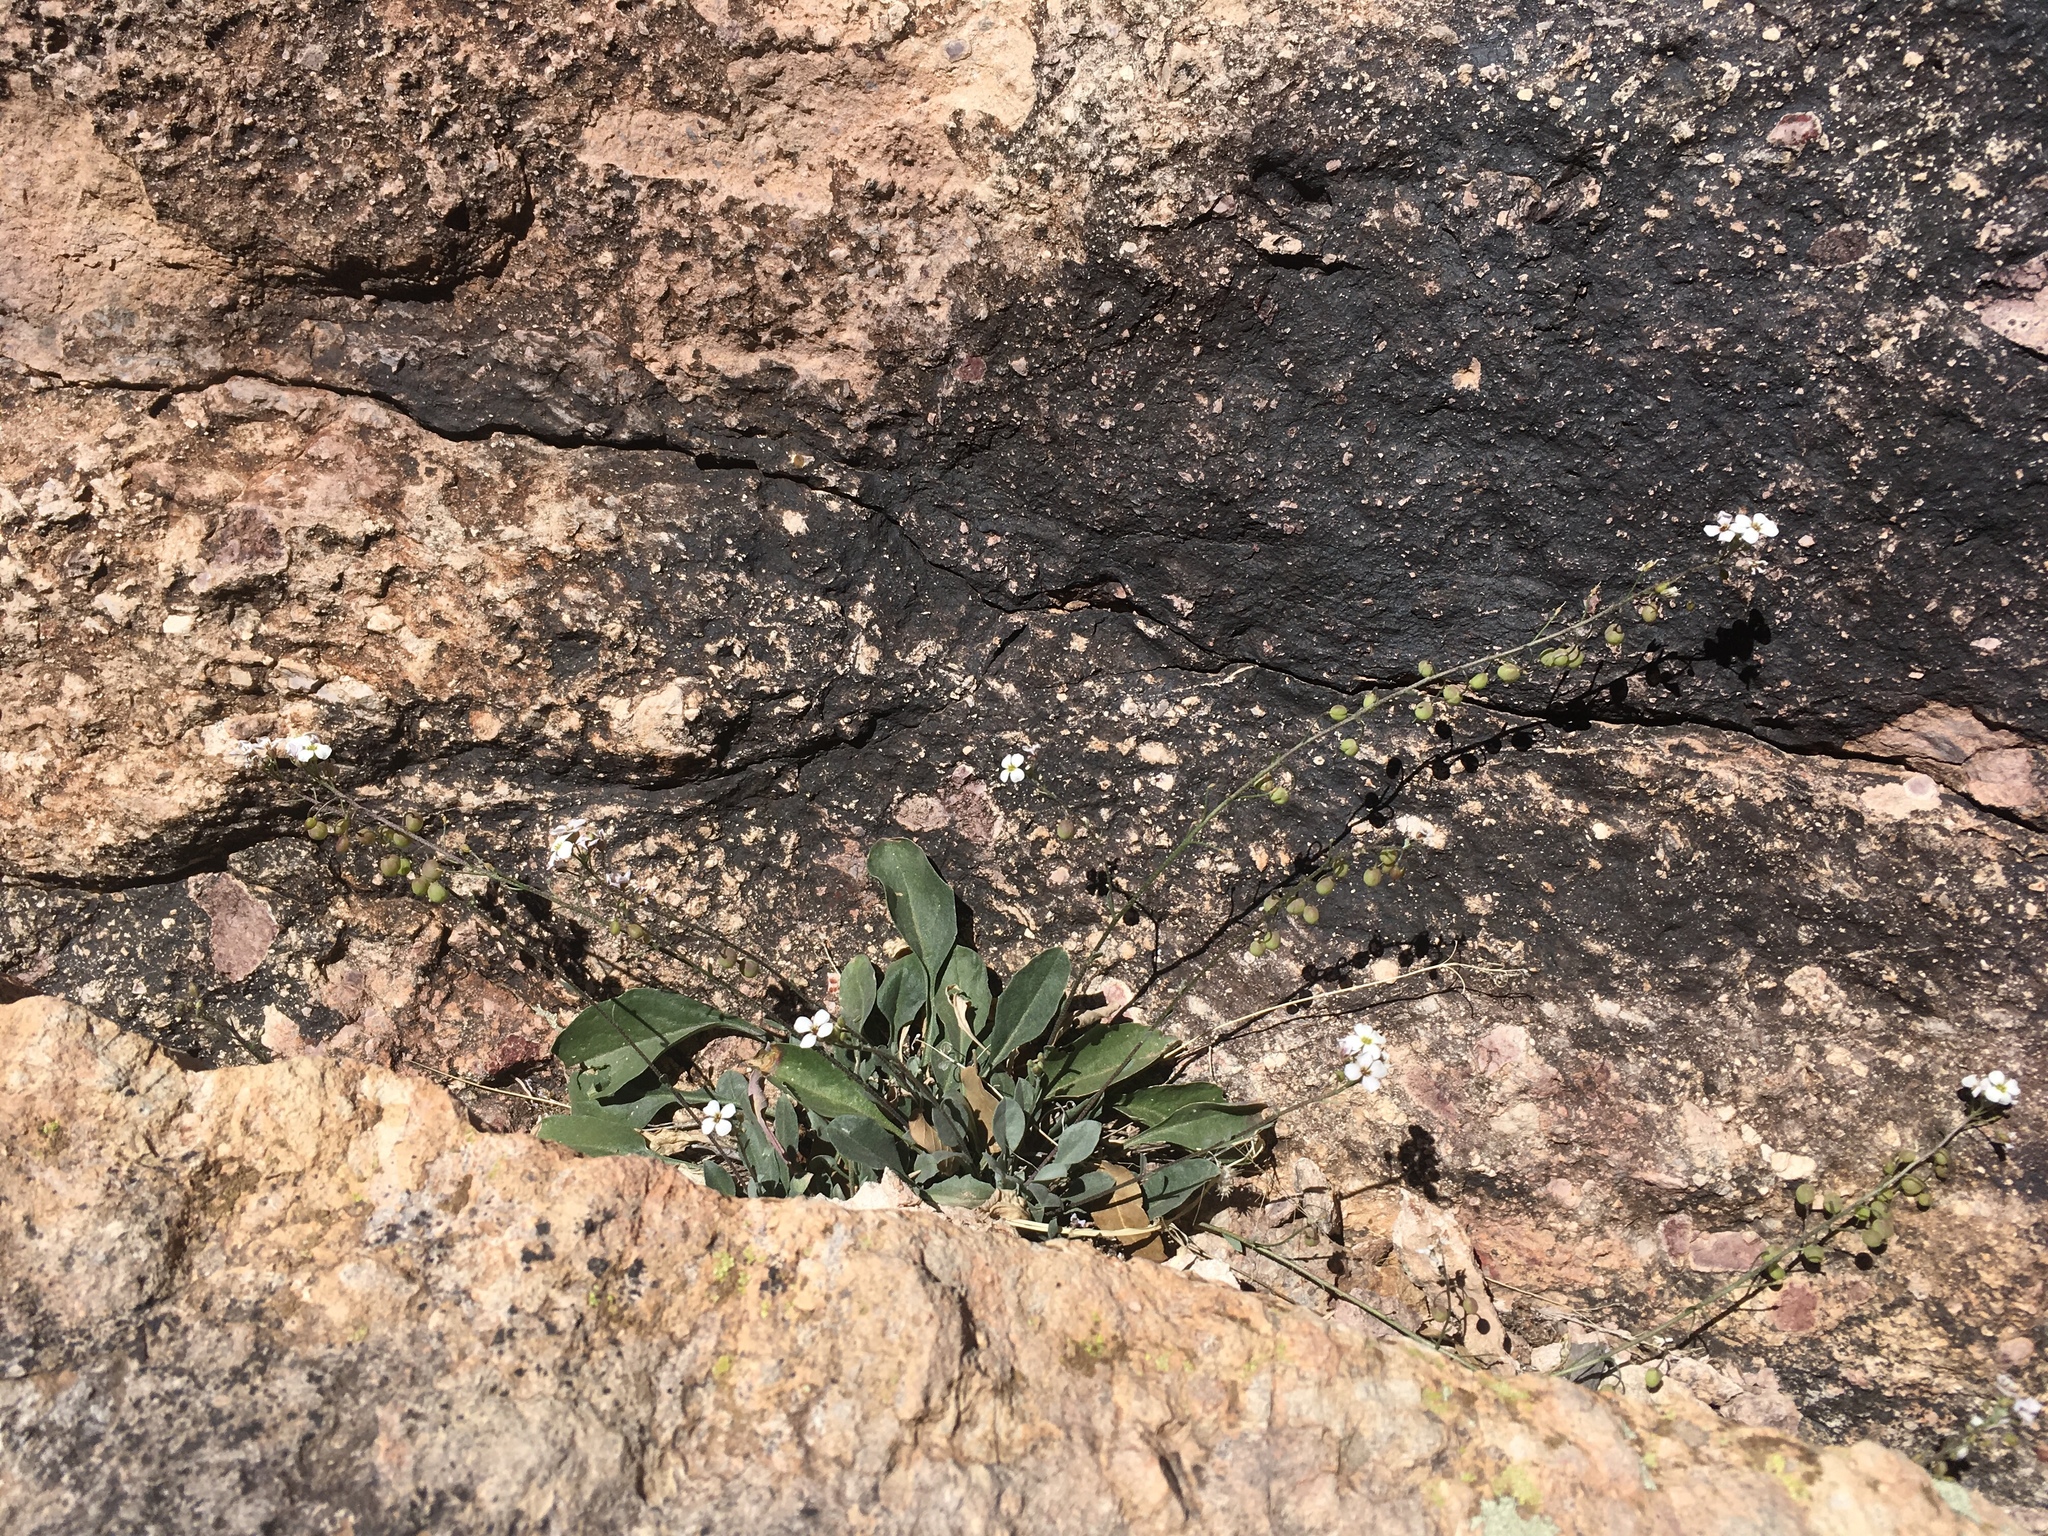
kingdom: Plantae
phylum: Tracheophyta
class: Magnoliopsida
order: Brassicales
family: Brassicaceae
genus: Physaria
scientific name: Physaria purpurea
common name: Rose bladderpod
